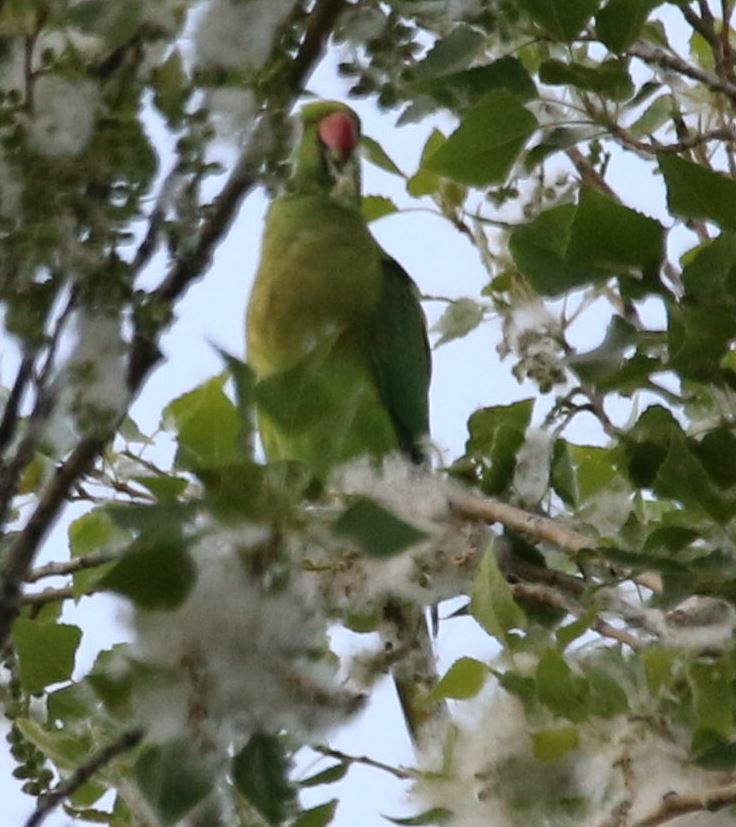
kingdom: Animalia
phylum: Chordata
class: Aves
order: Psittaciformes
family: Psittacidae
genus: Psittacula
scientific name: Psittacula krameri
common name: Rose-ringed parakeet
